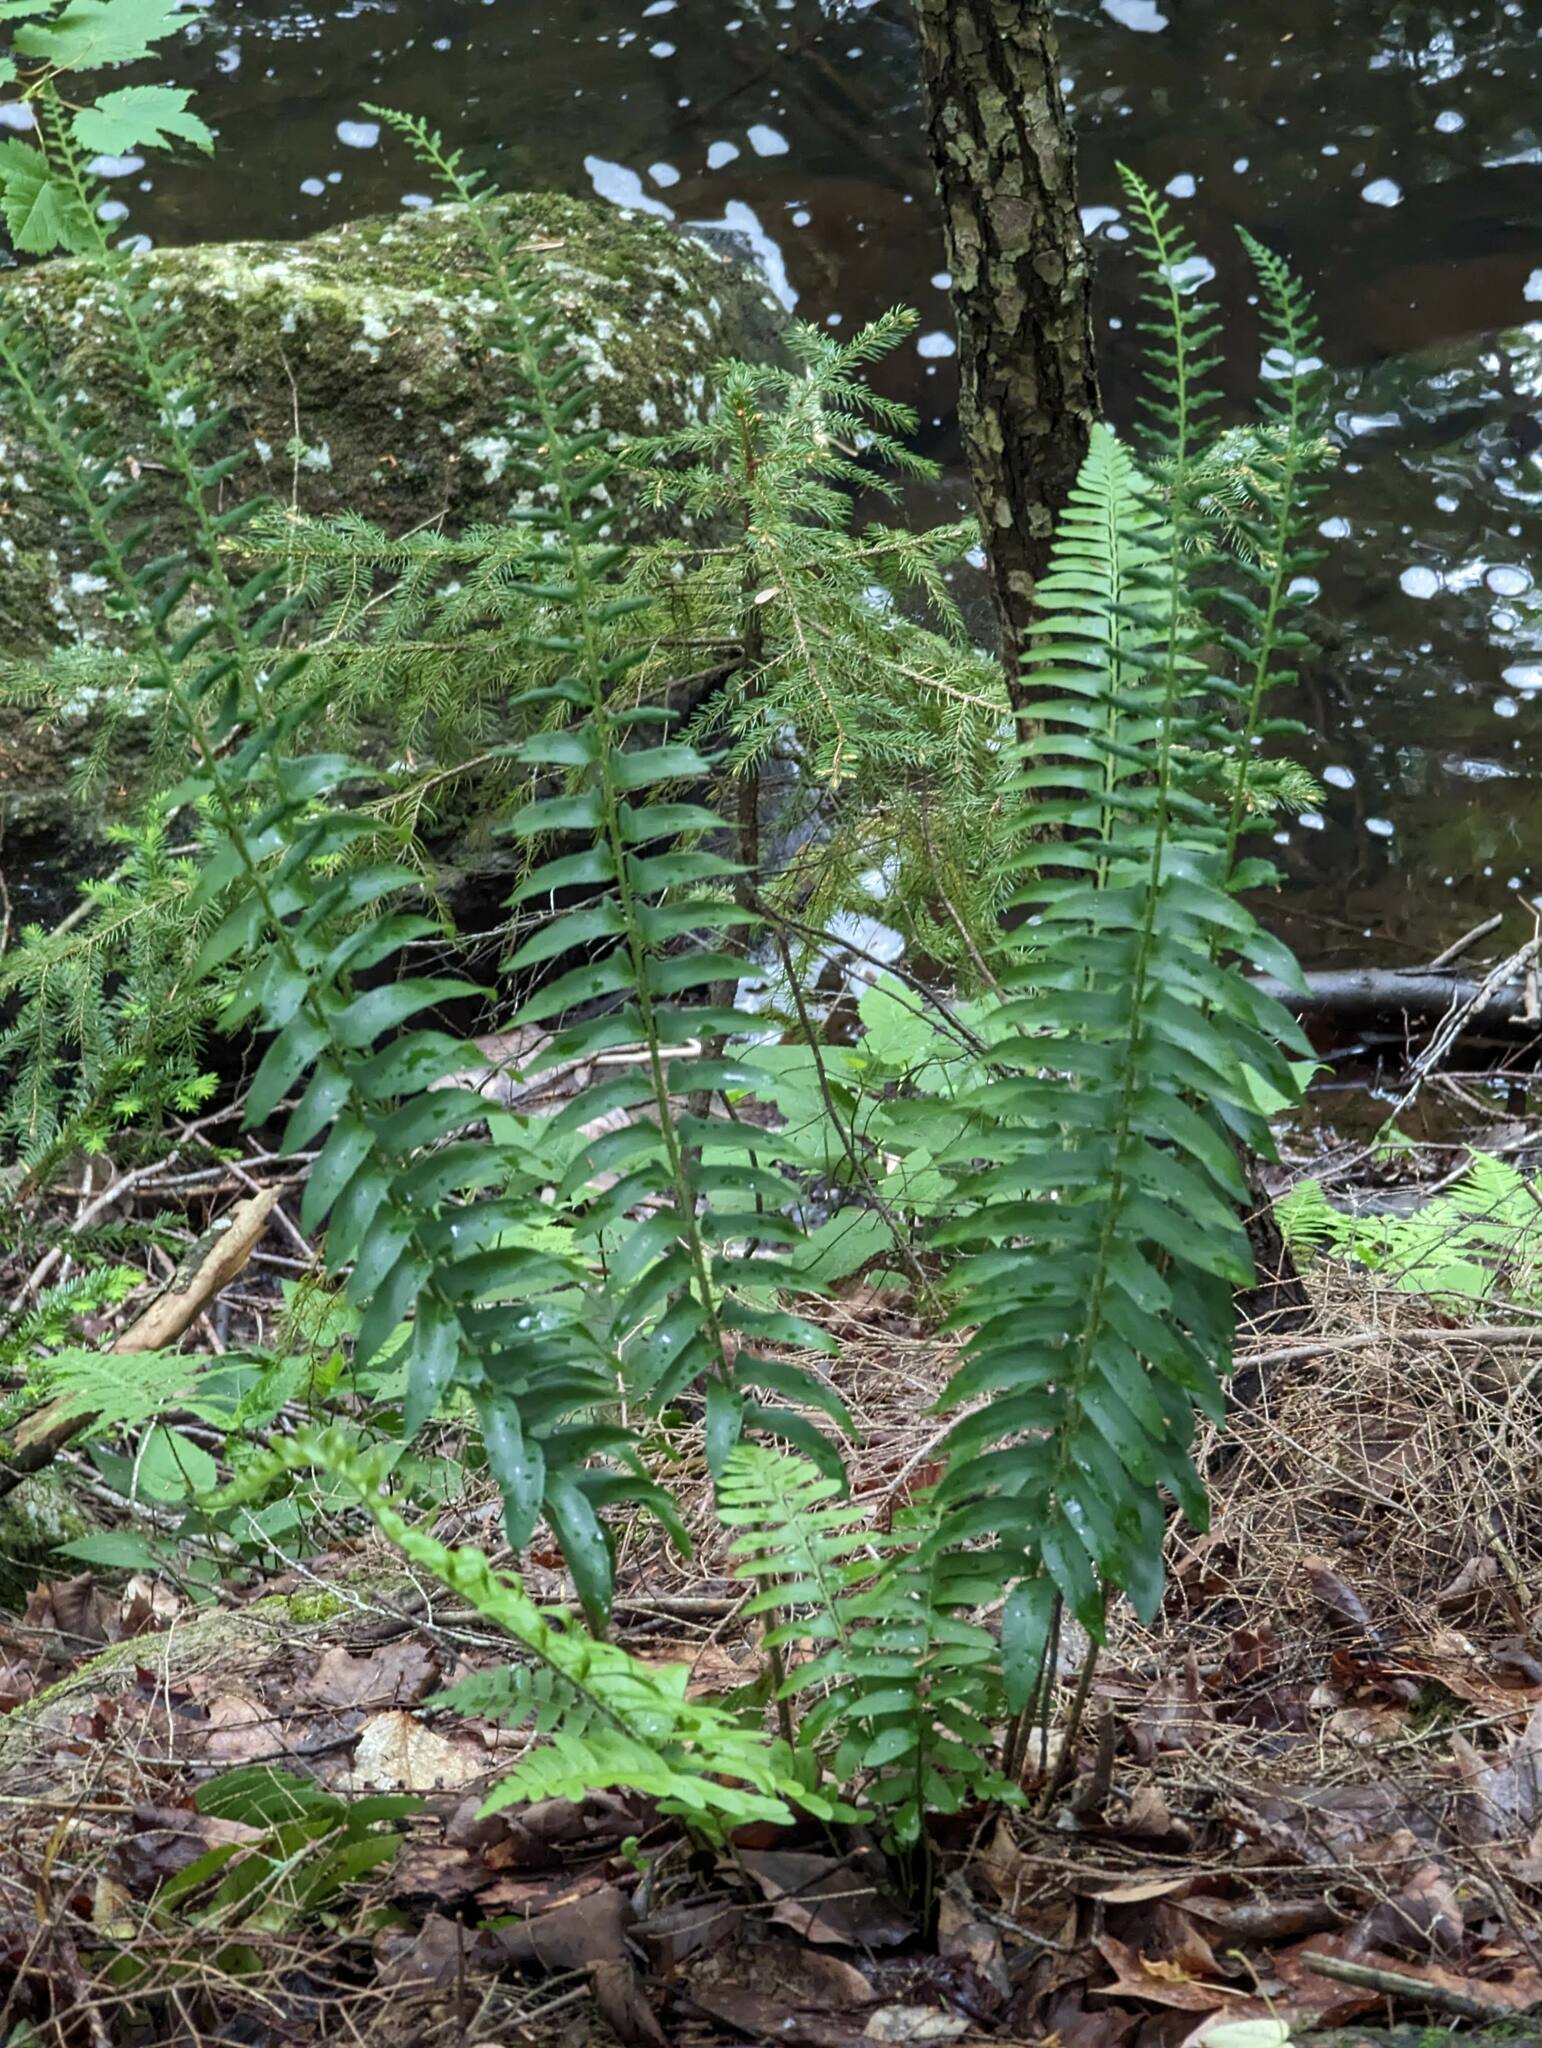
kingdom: Plantae
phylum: Tracheophyta
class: Polypodiopsida
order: Polypodiales
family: Dryopteridaceae
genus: Polystichum
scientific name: Polystichum acrostichoides
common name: Christmas fern
